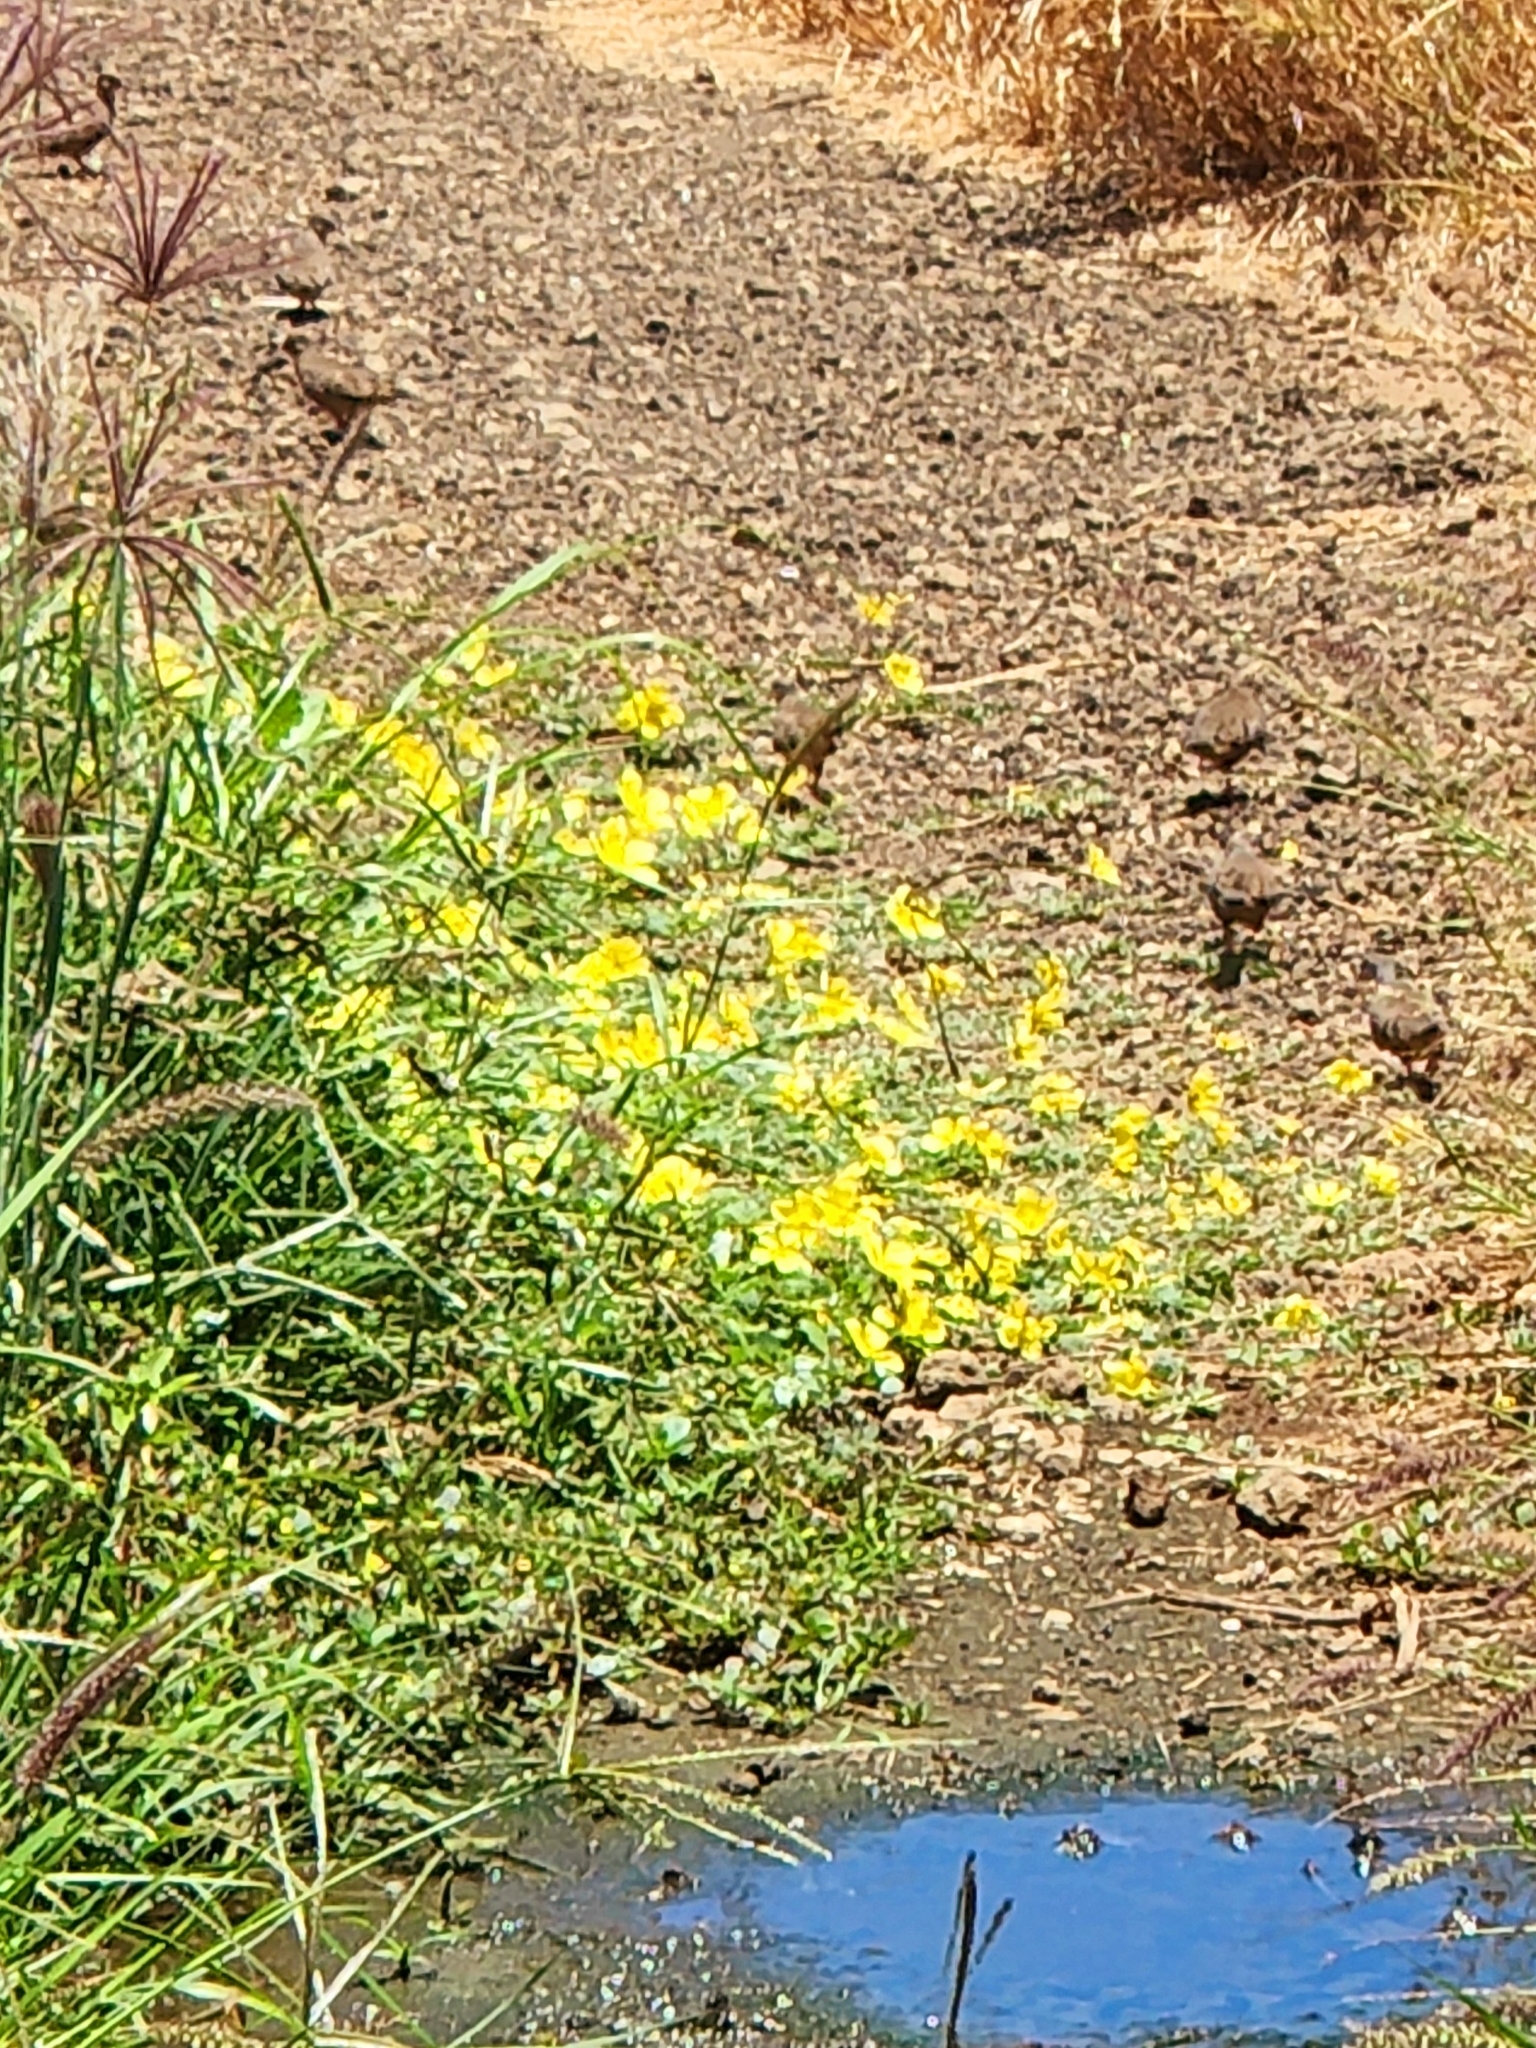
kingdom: Animalia
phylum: Chordata
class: Aves
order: Columbiformes
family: Columbidae
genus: Columbina
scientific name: Columbina passerina
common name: Common ground-dove
